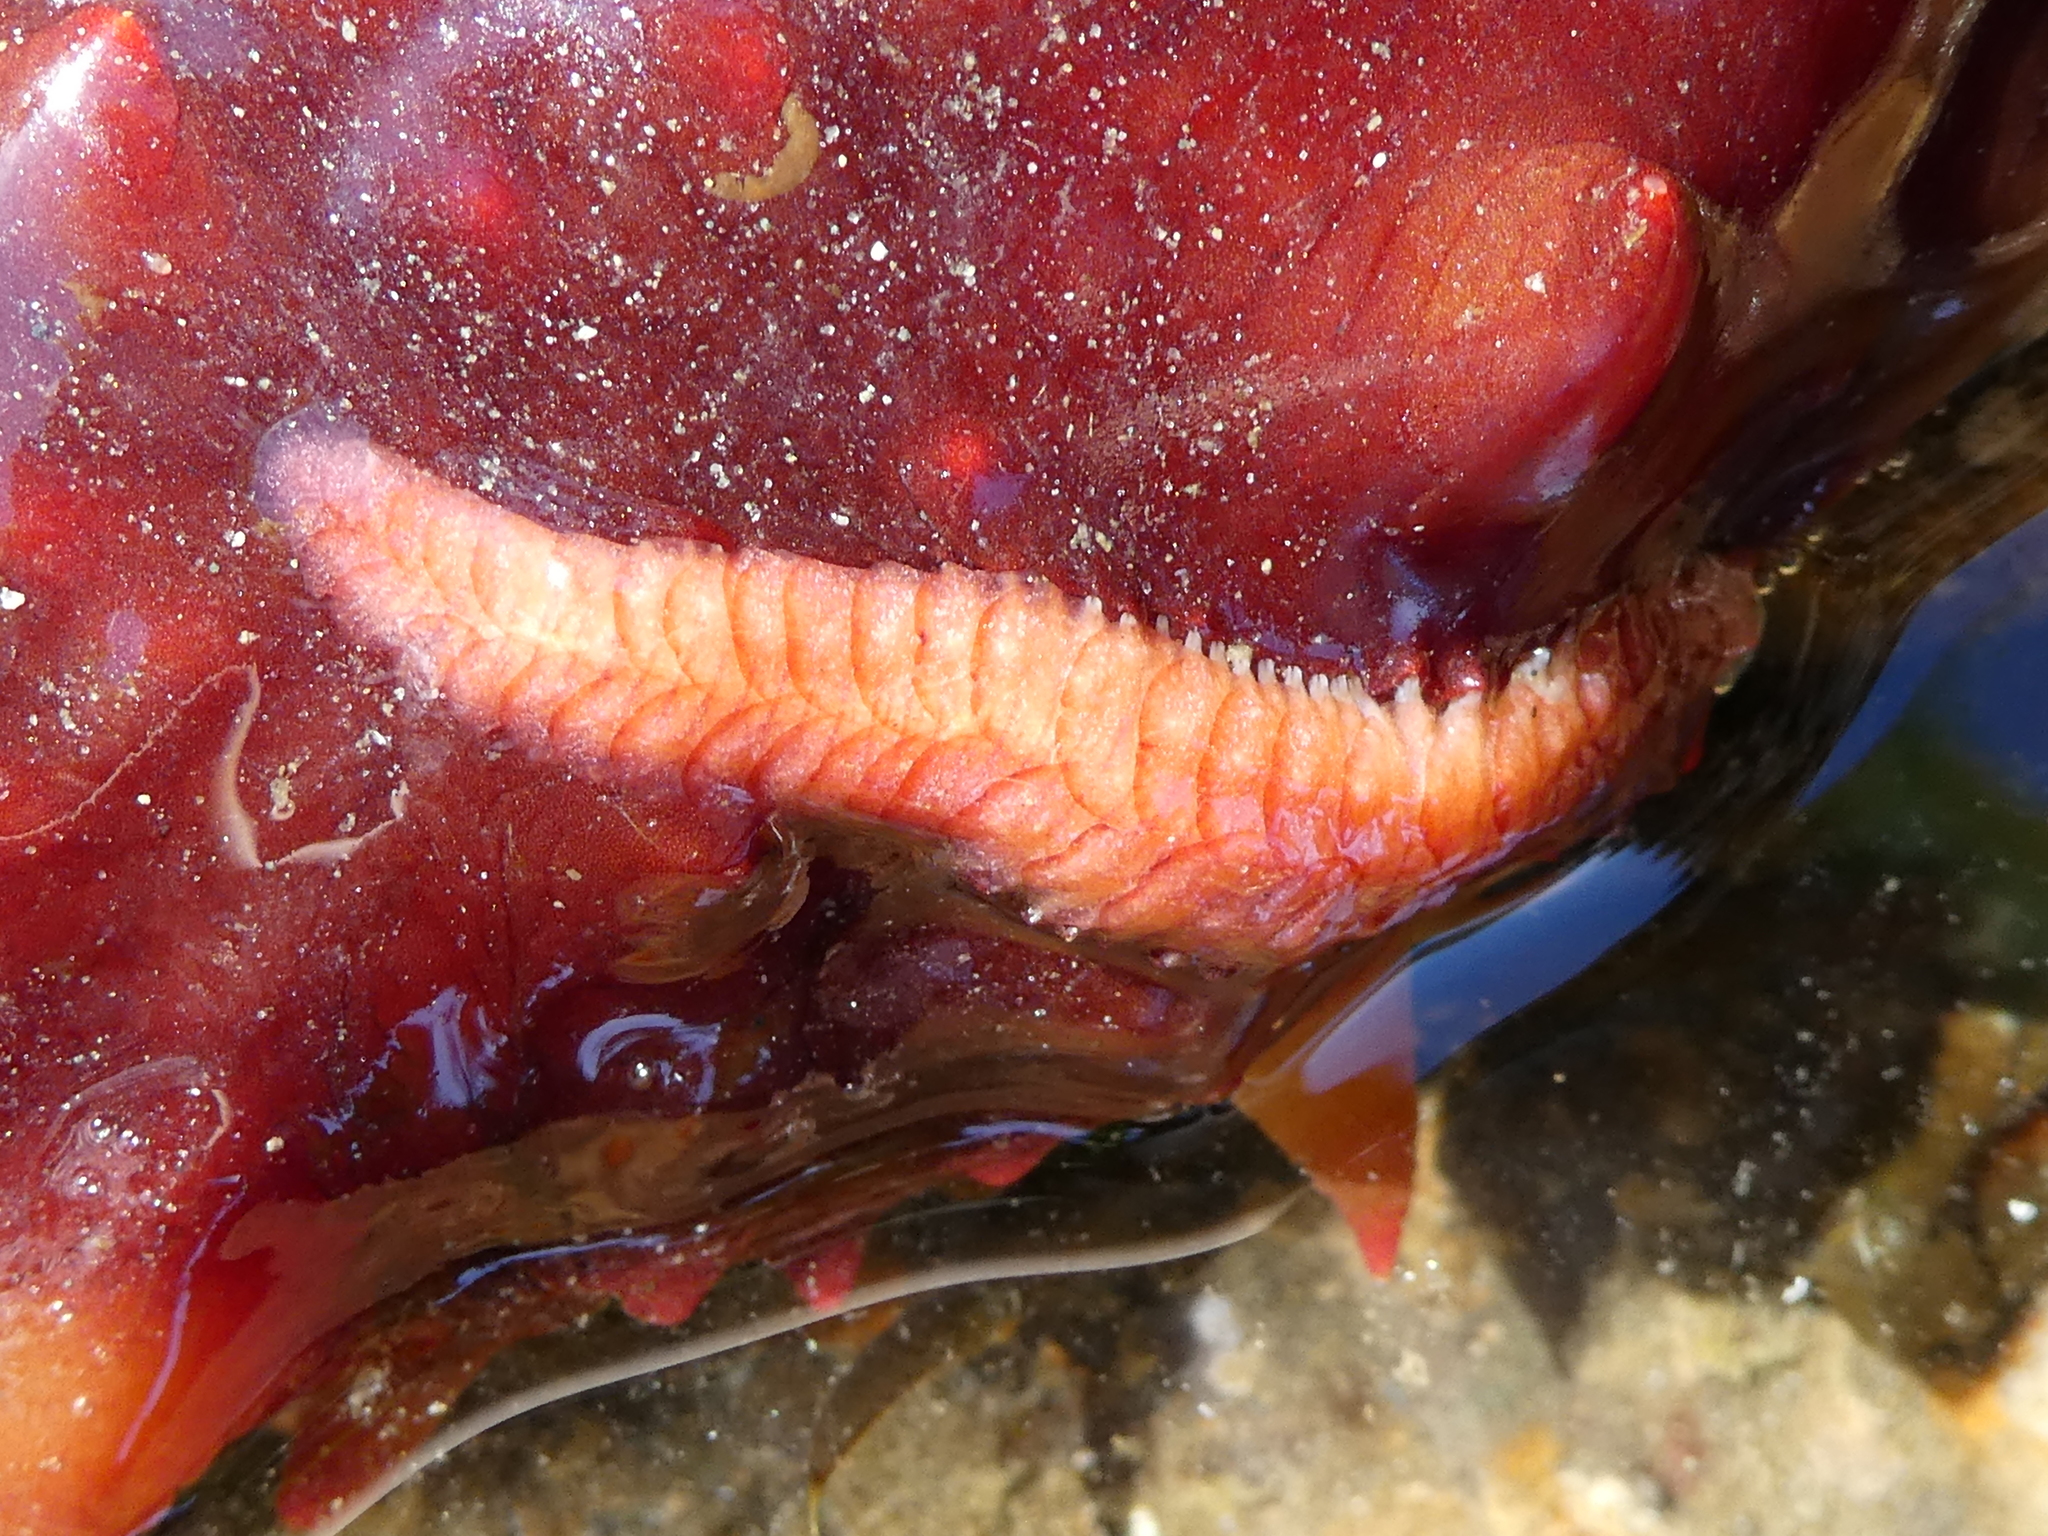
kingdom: Animalia
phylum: Annelida
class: Polychaeta
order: Phyllodocida
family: Polynoidae
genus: Arctonoe
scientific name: Arctonoe pulchra
